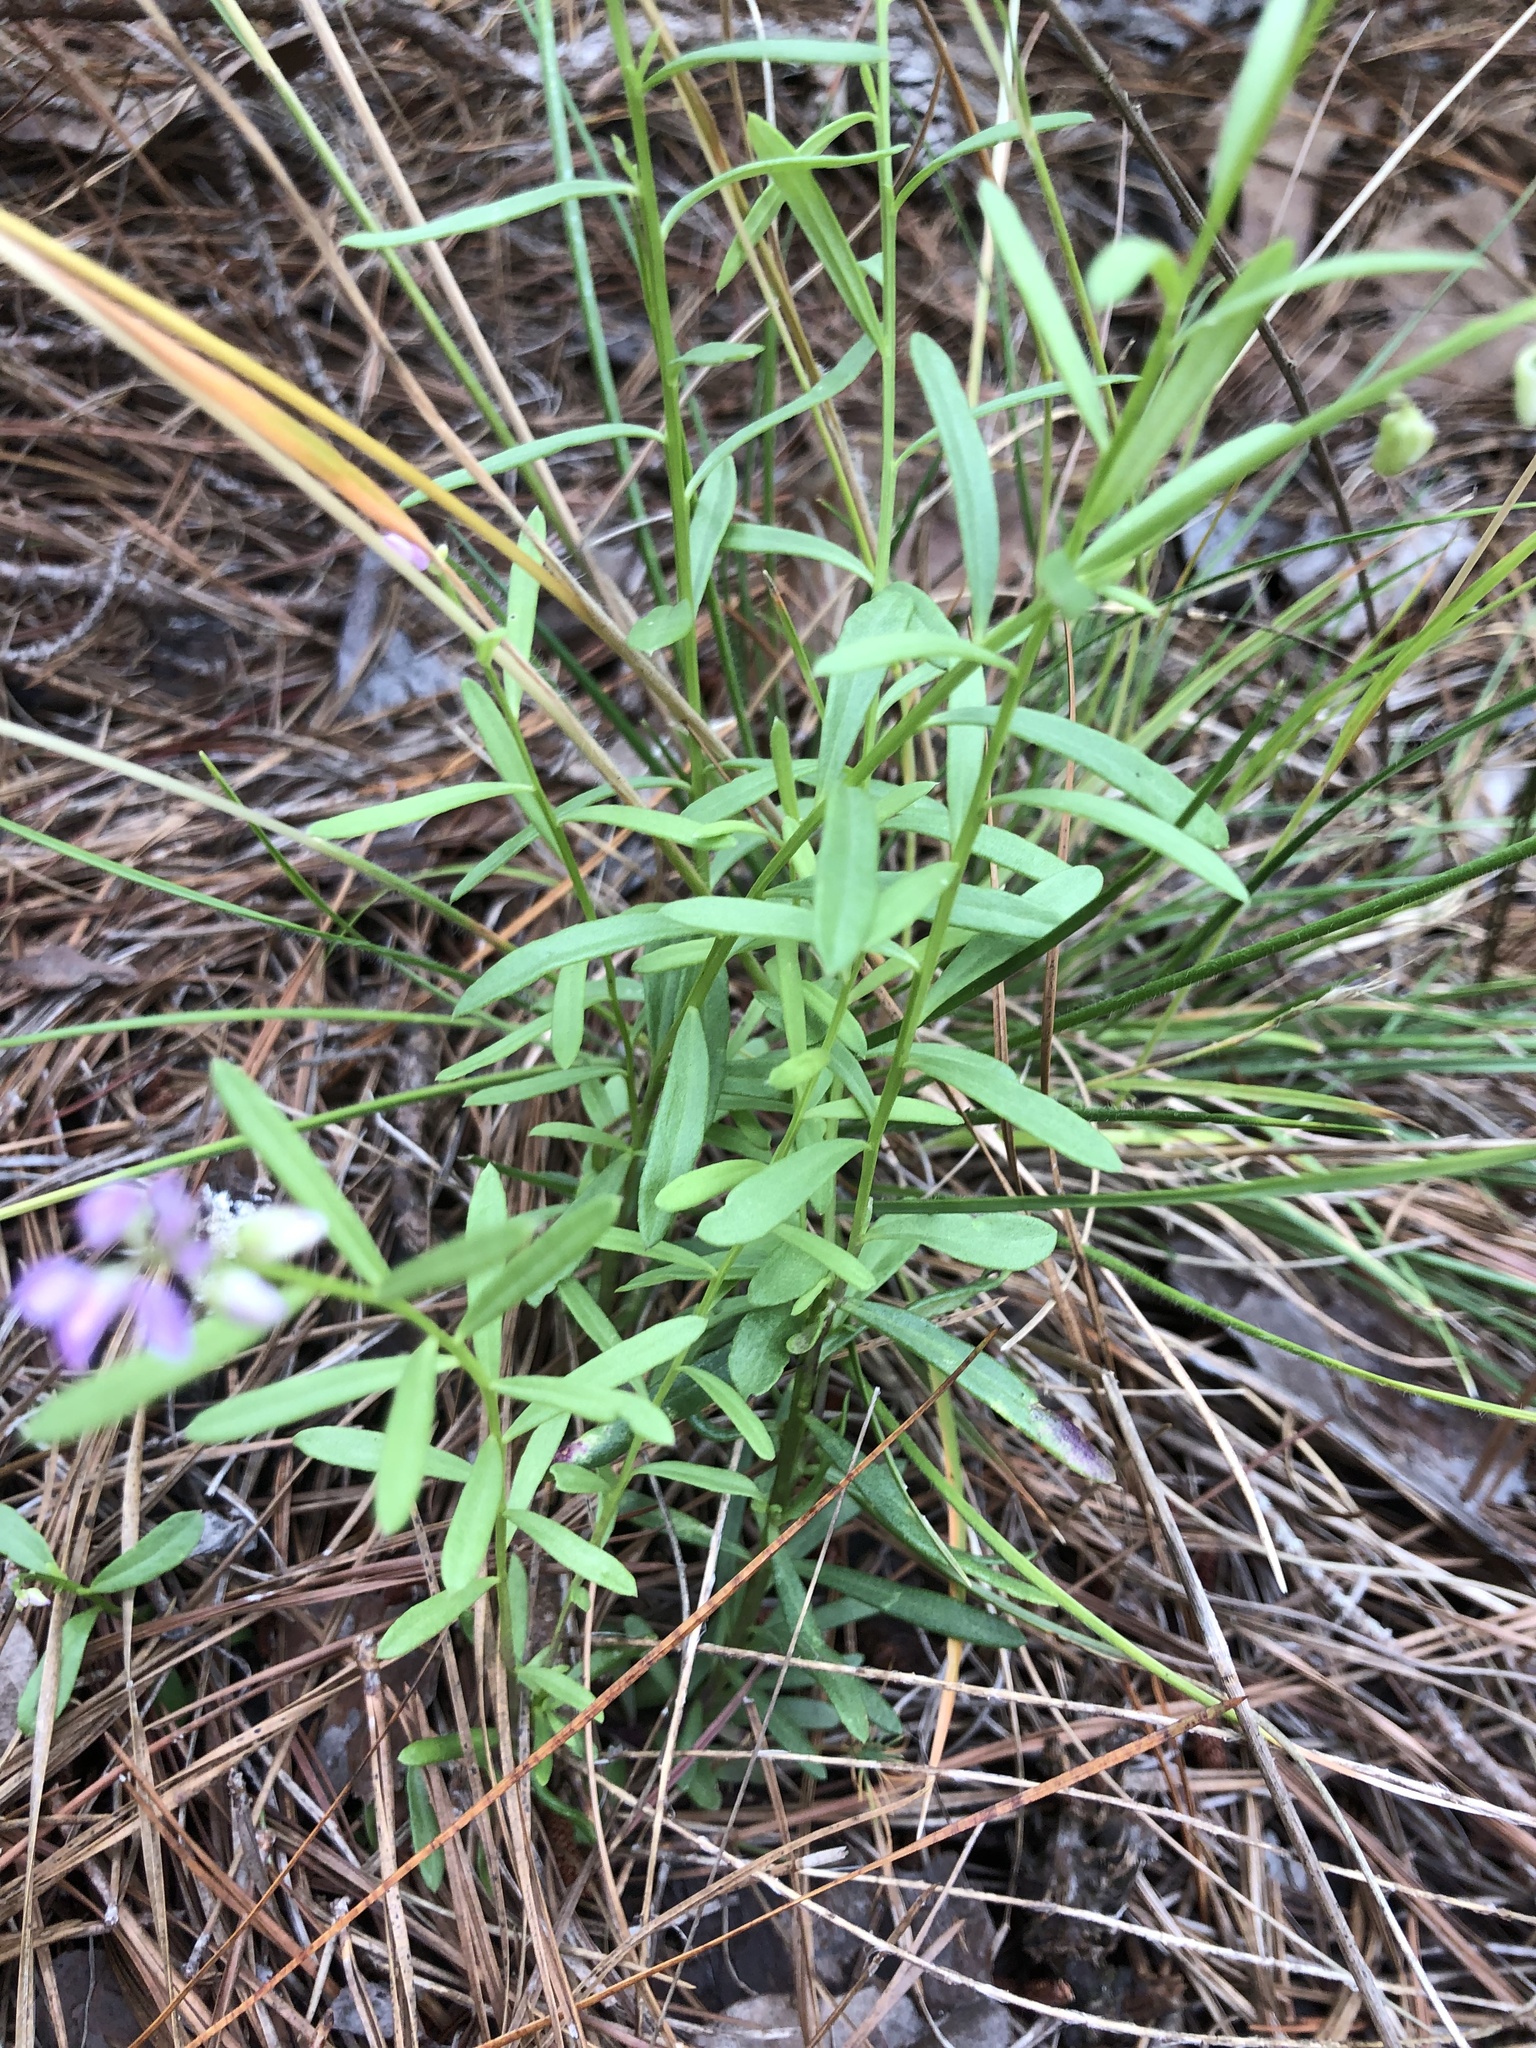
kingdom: Plantae
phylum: Tracheophyta
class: Magnoliopsida
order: Fabales
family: Polygalaceae
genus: Polygala
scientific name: Polygala polygama
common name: Bitter milkwort
